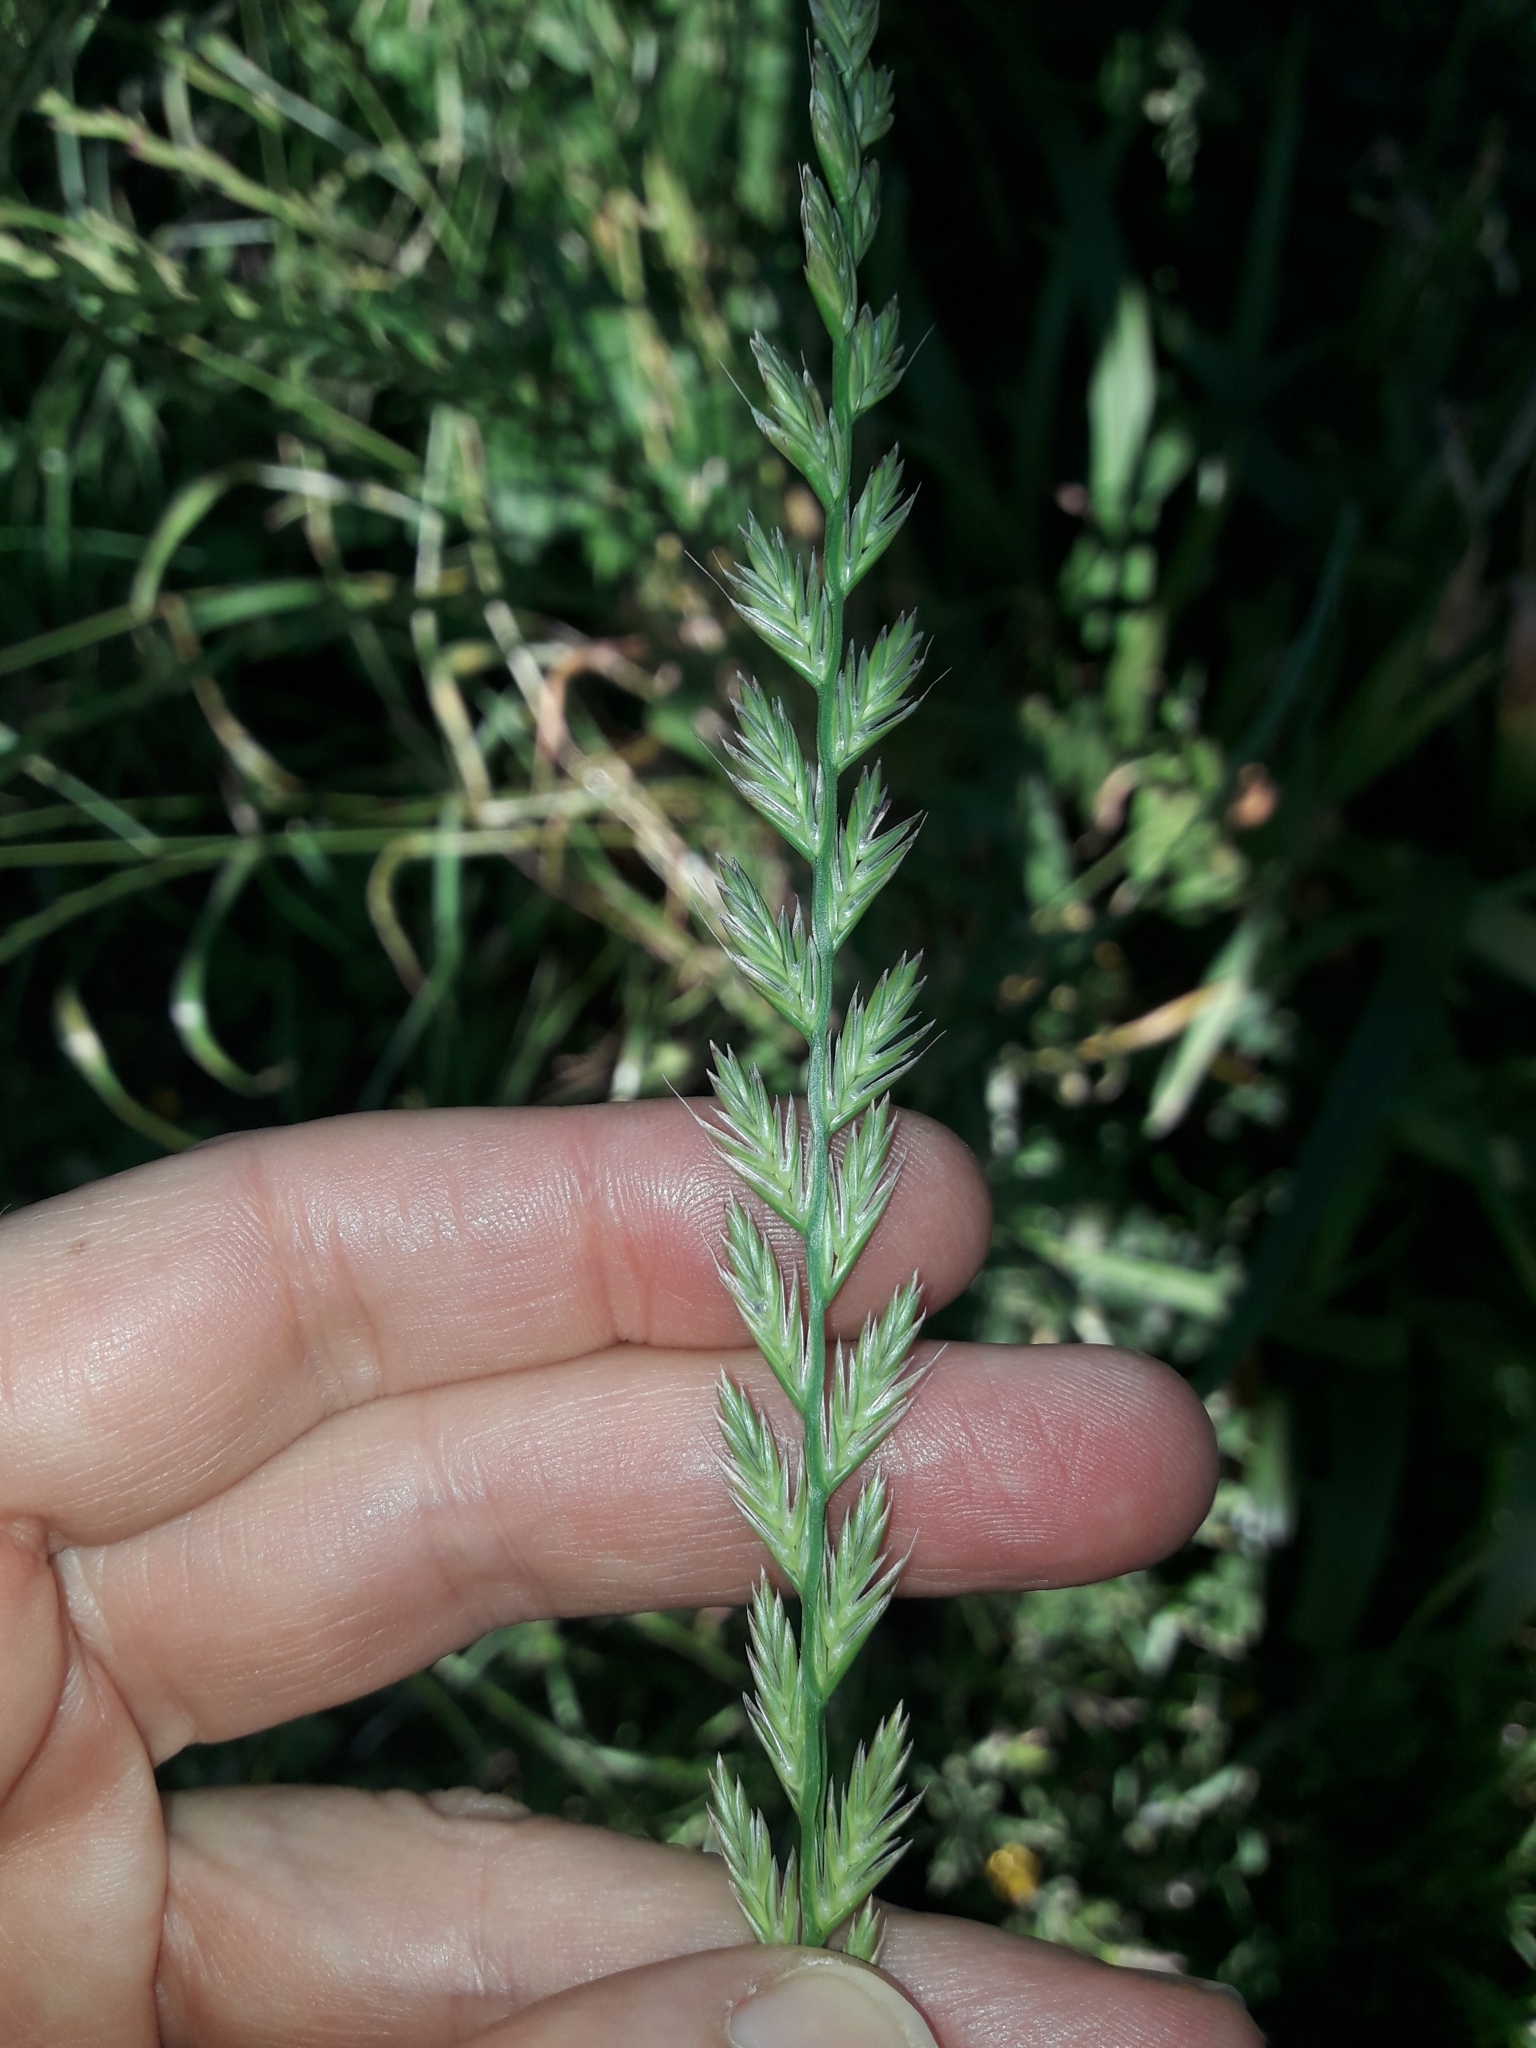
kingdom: Plantae
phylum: Tracheophyta
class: Liliopsida
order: Poales
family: Poaceae
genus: Lolium
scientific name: Lolium multiflorum
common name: Annual ryegrass
